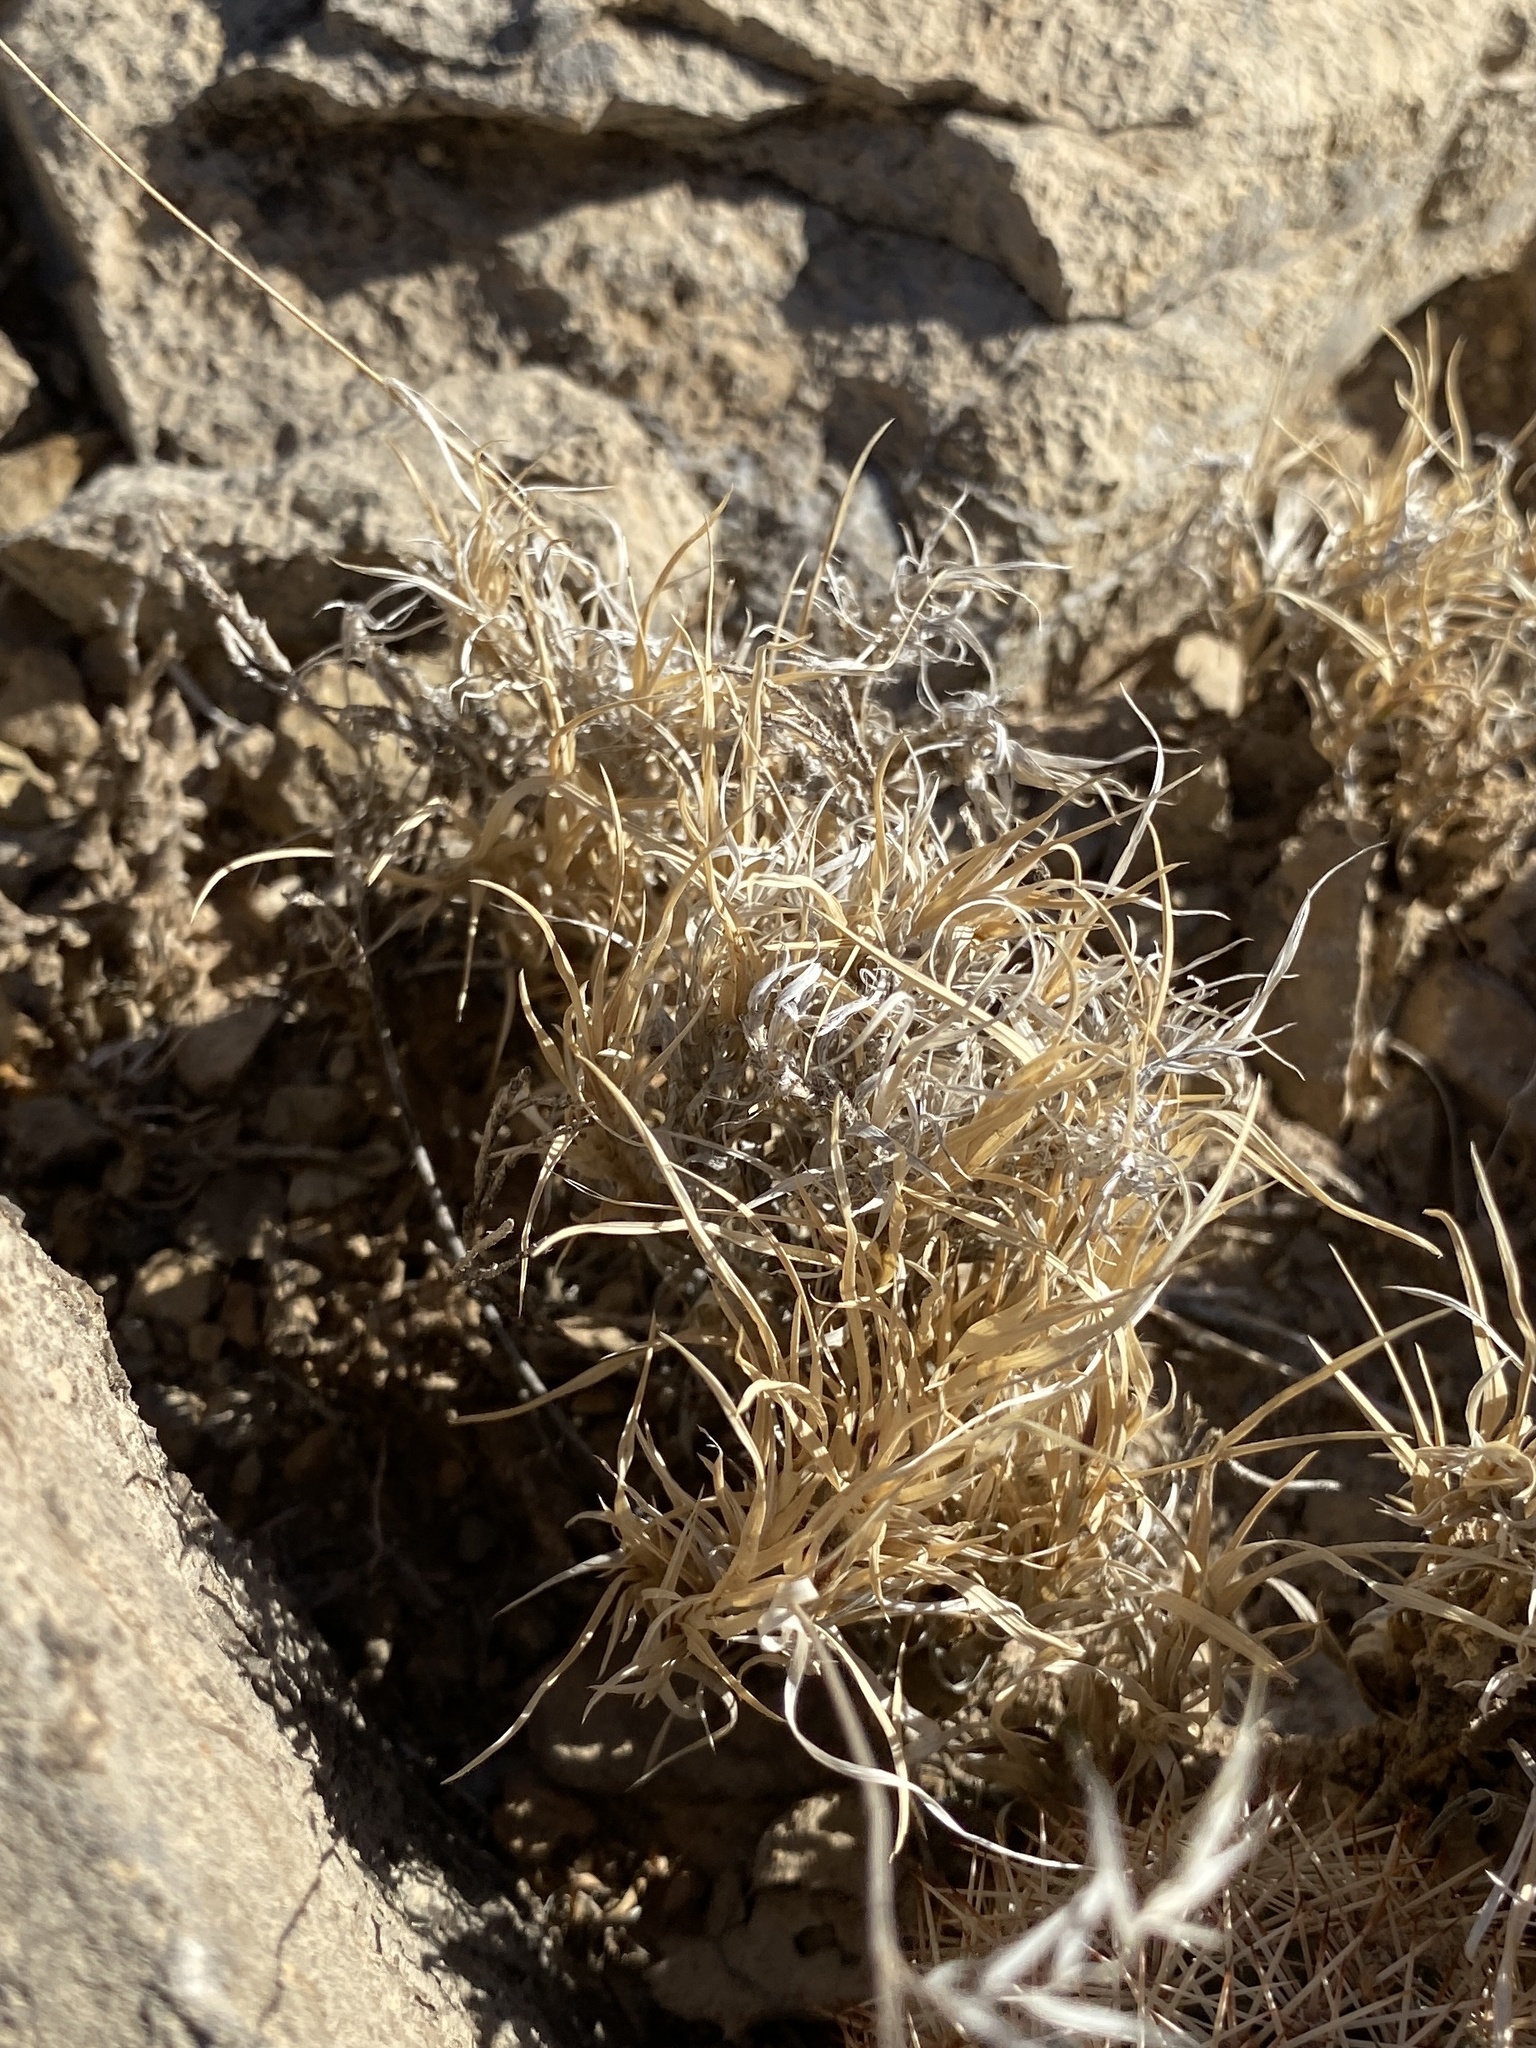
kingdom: Plantae
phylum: Tracheophyta
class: Liliopsida
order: Poales
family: Poaceae
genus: Dasyochloa
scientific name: Dasyochloa pulchella
